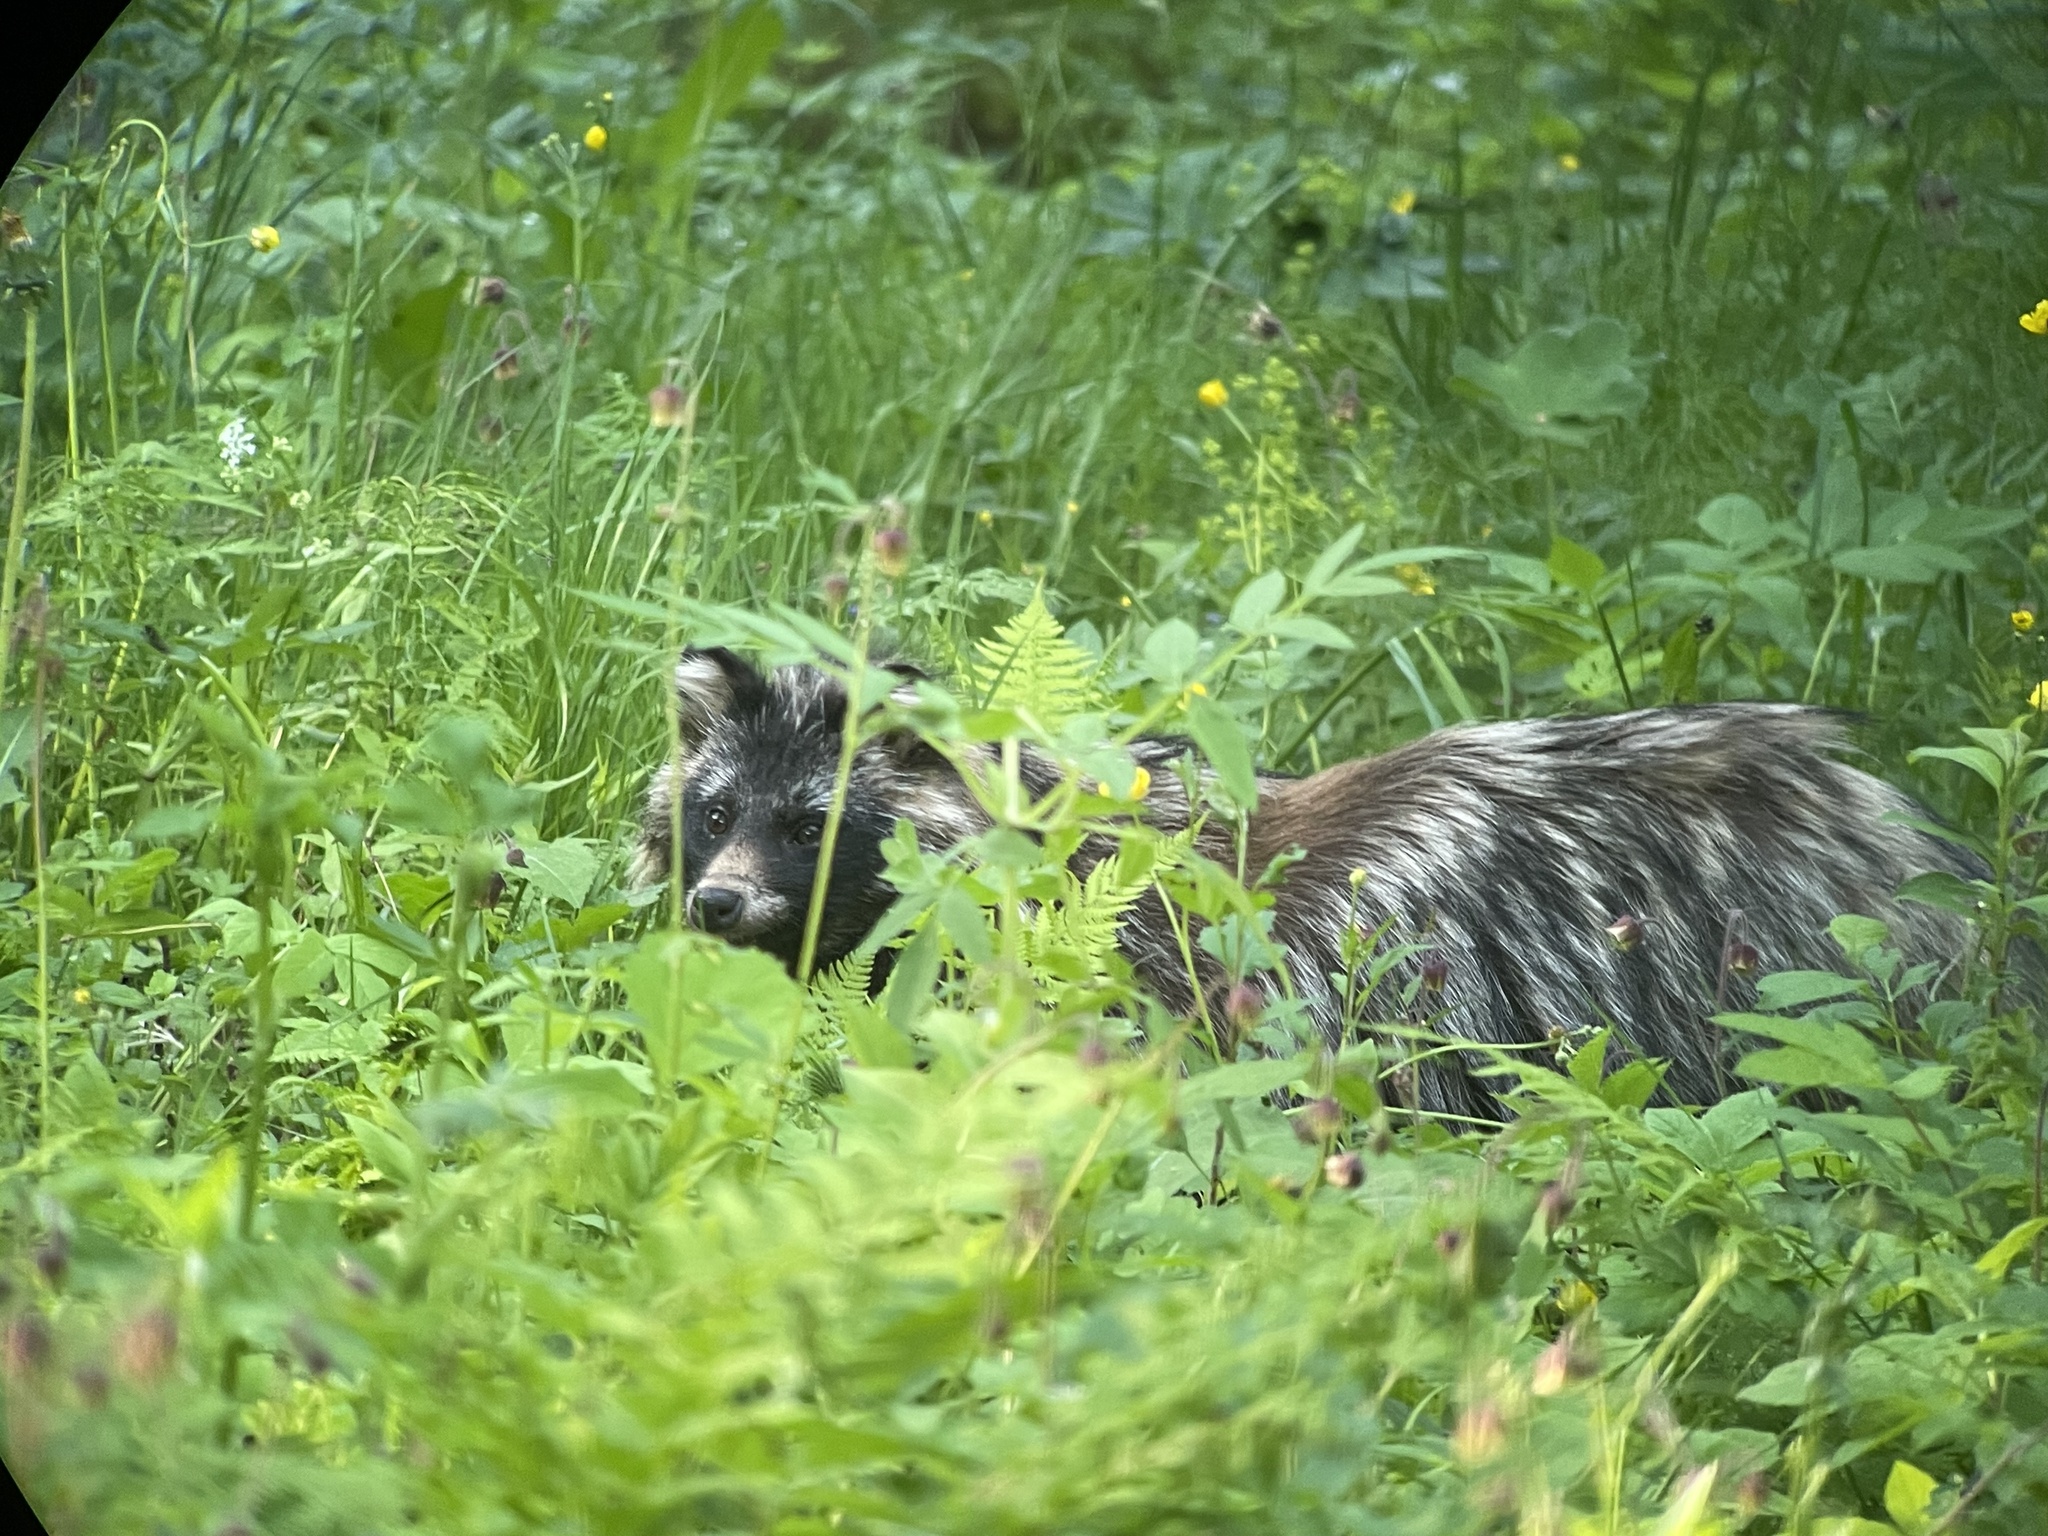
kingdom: Animalia
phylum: Chordata
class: Mammalia
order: Carnivora
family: Canidae
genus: Nyctereutes
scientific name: Nyctereutes procyonoides
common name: Raccoon dog
